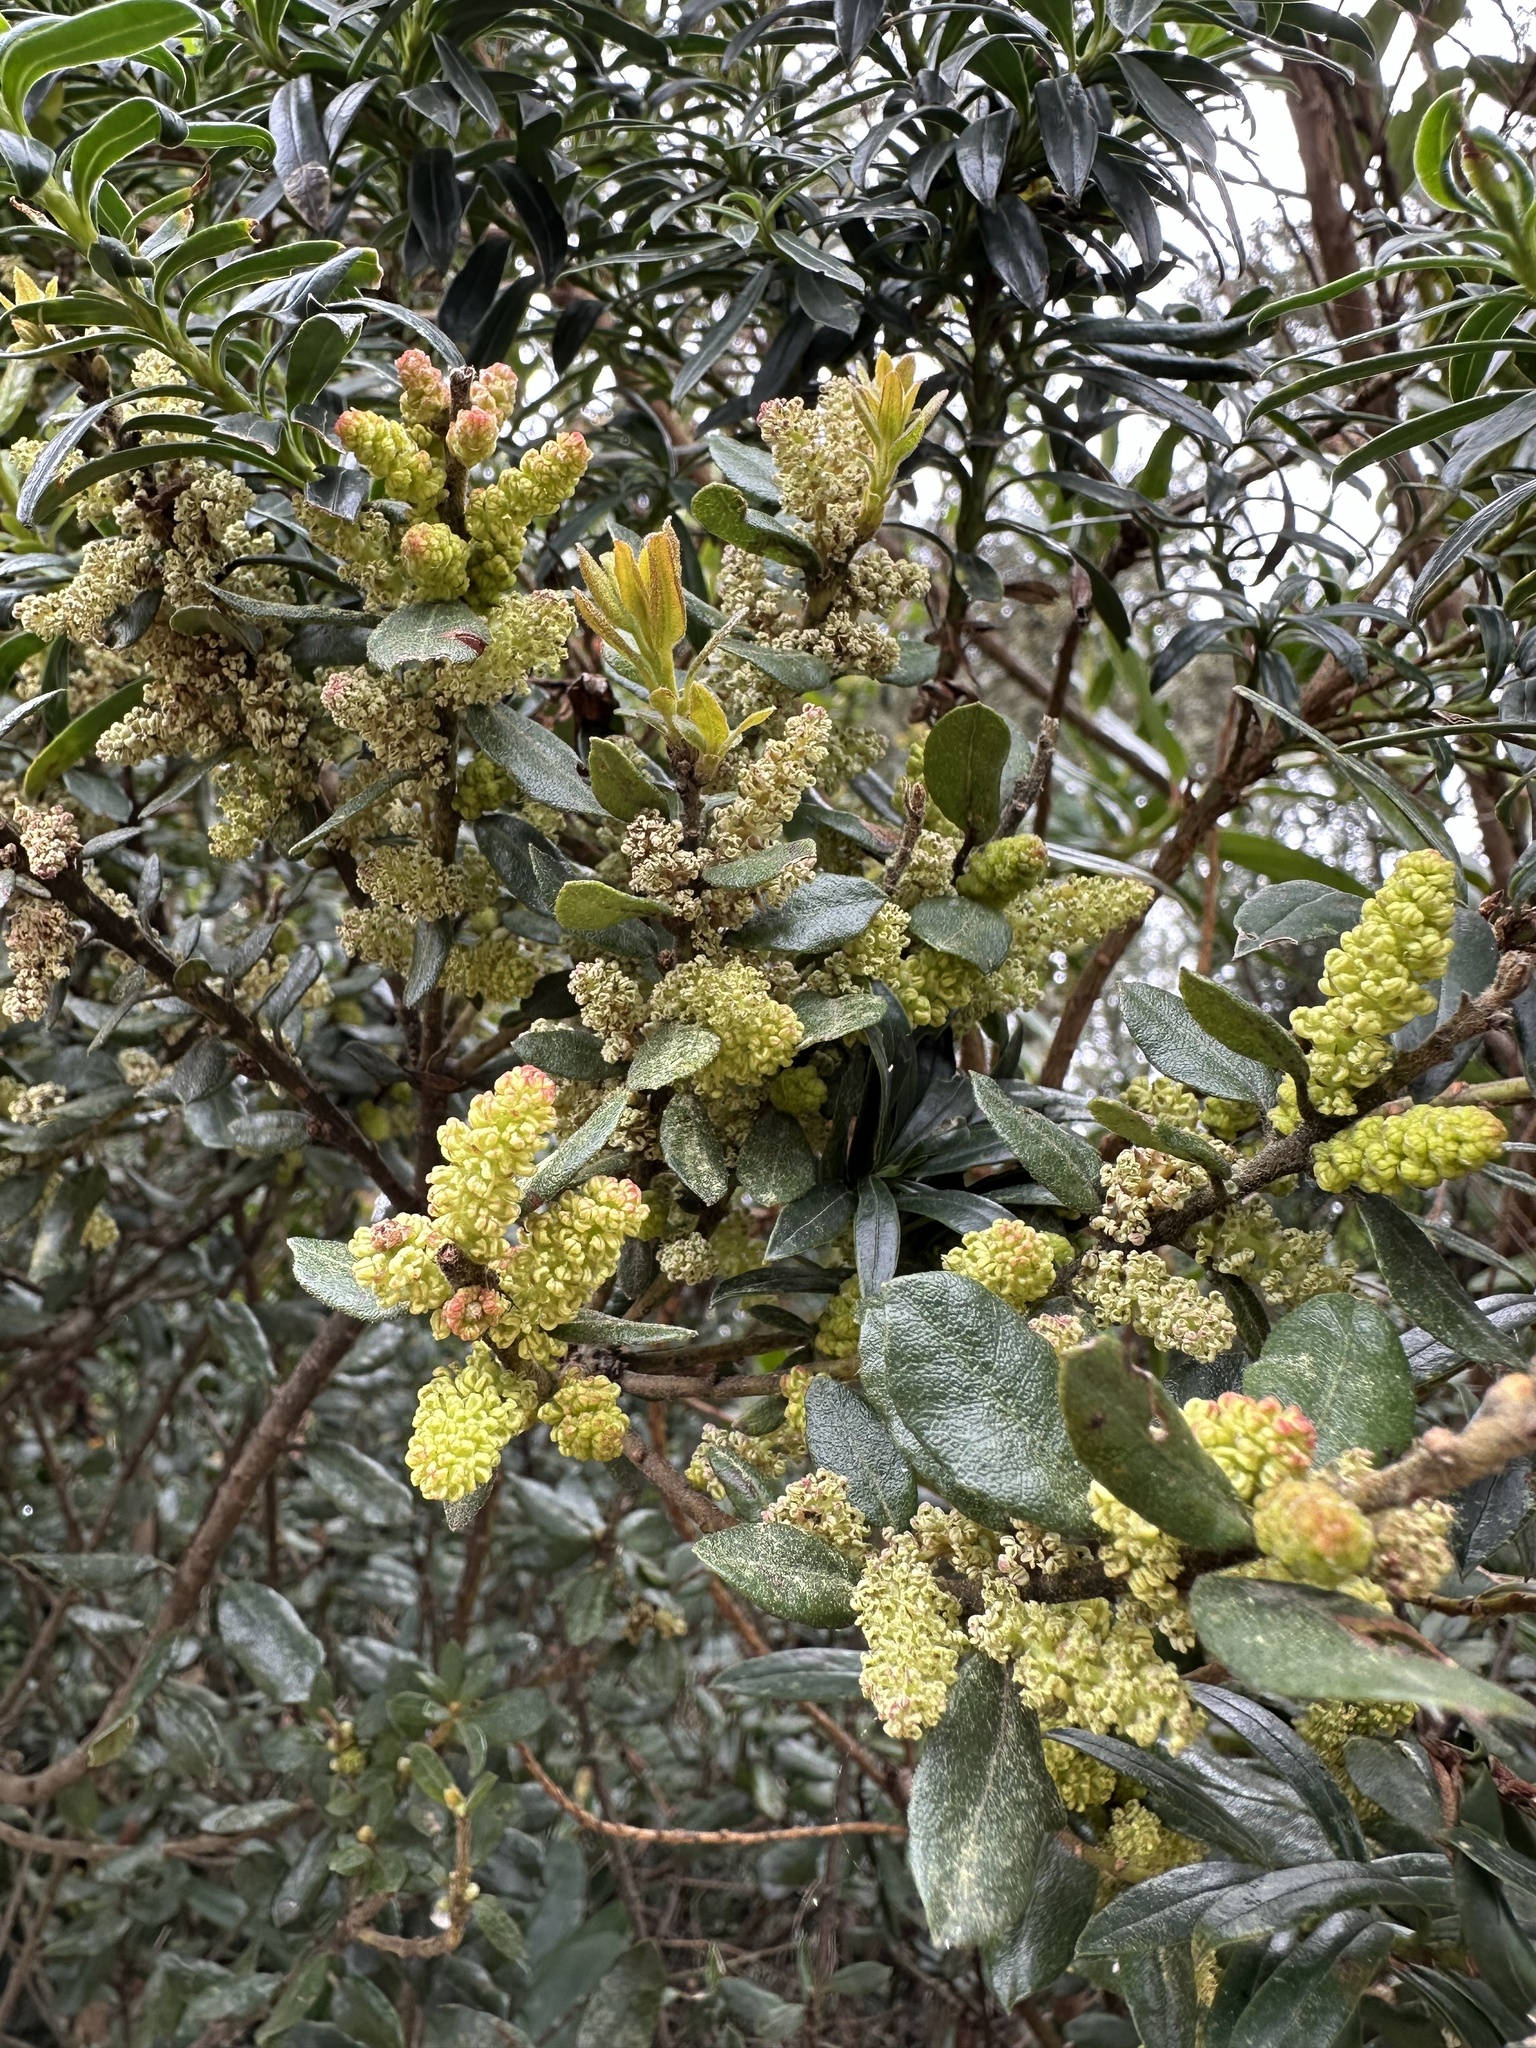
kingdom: Plantae
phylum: Tracheophyta
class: Magnoliopsida
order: Fagales
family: Myricaceae
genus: Morella
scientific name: Morella parvifolia
